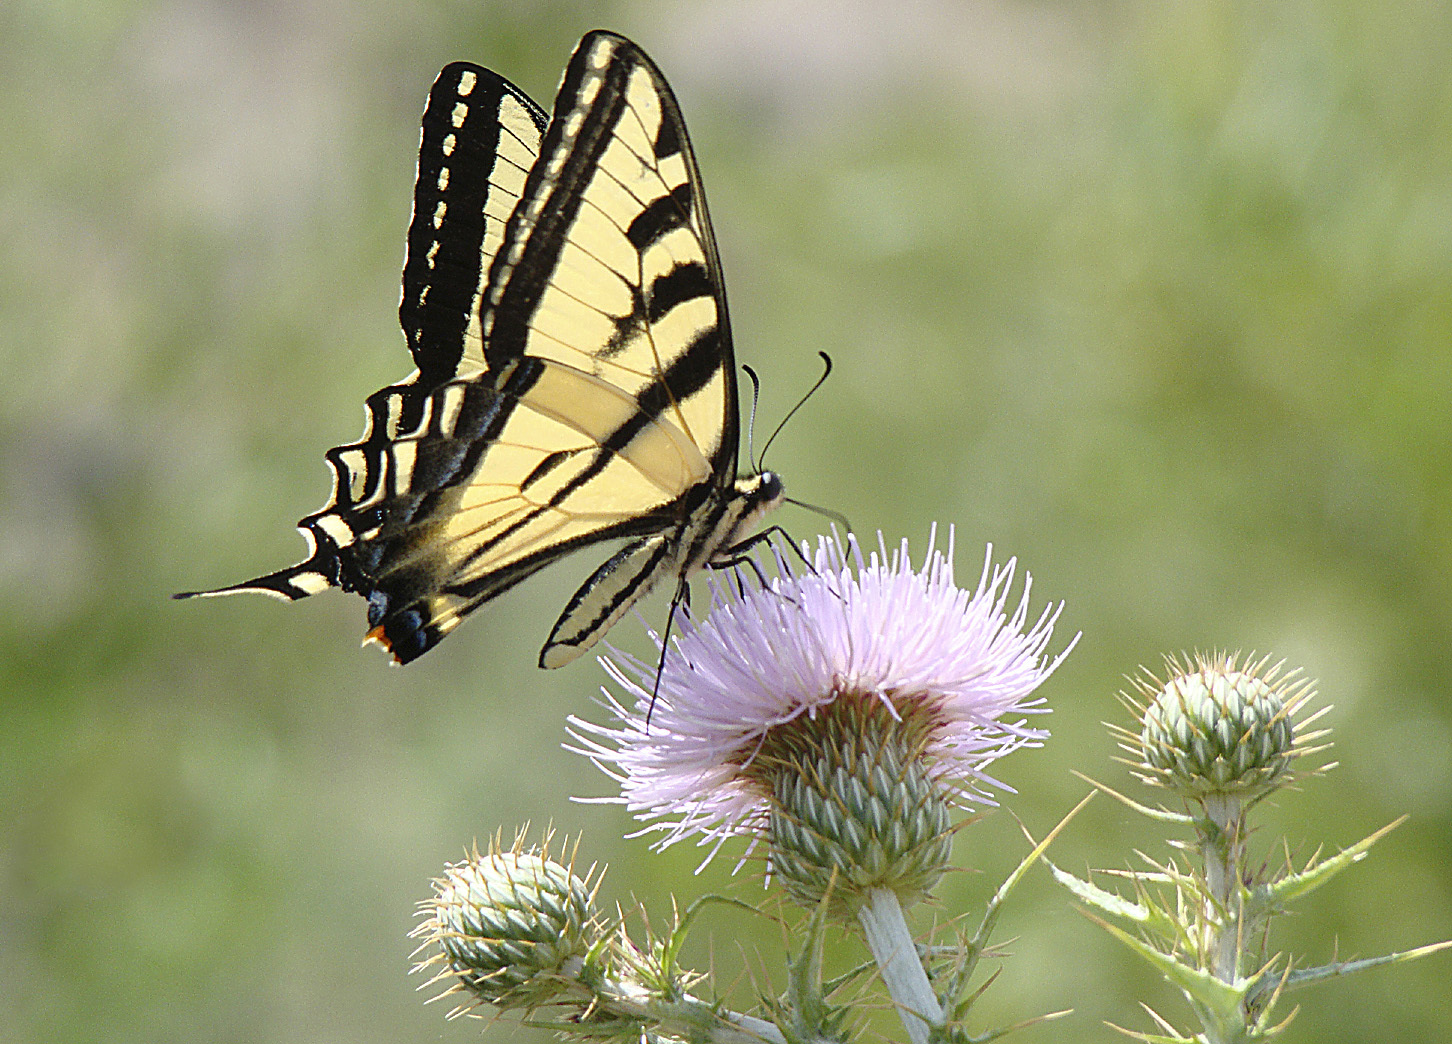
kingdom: Animalia
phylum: Arthropoda
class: Insecta
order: Lepidoptera
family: Papilionidae
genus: Papilio
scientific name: Papilio rutulus
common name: Western tiger swallowtail
